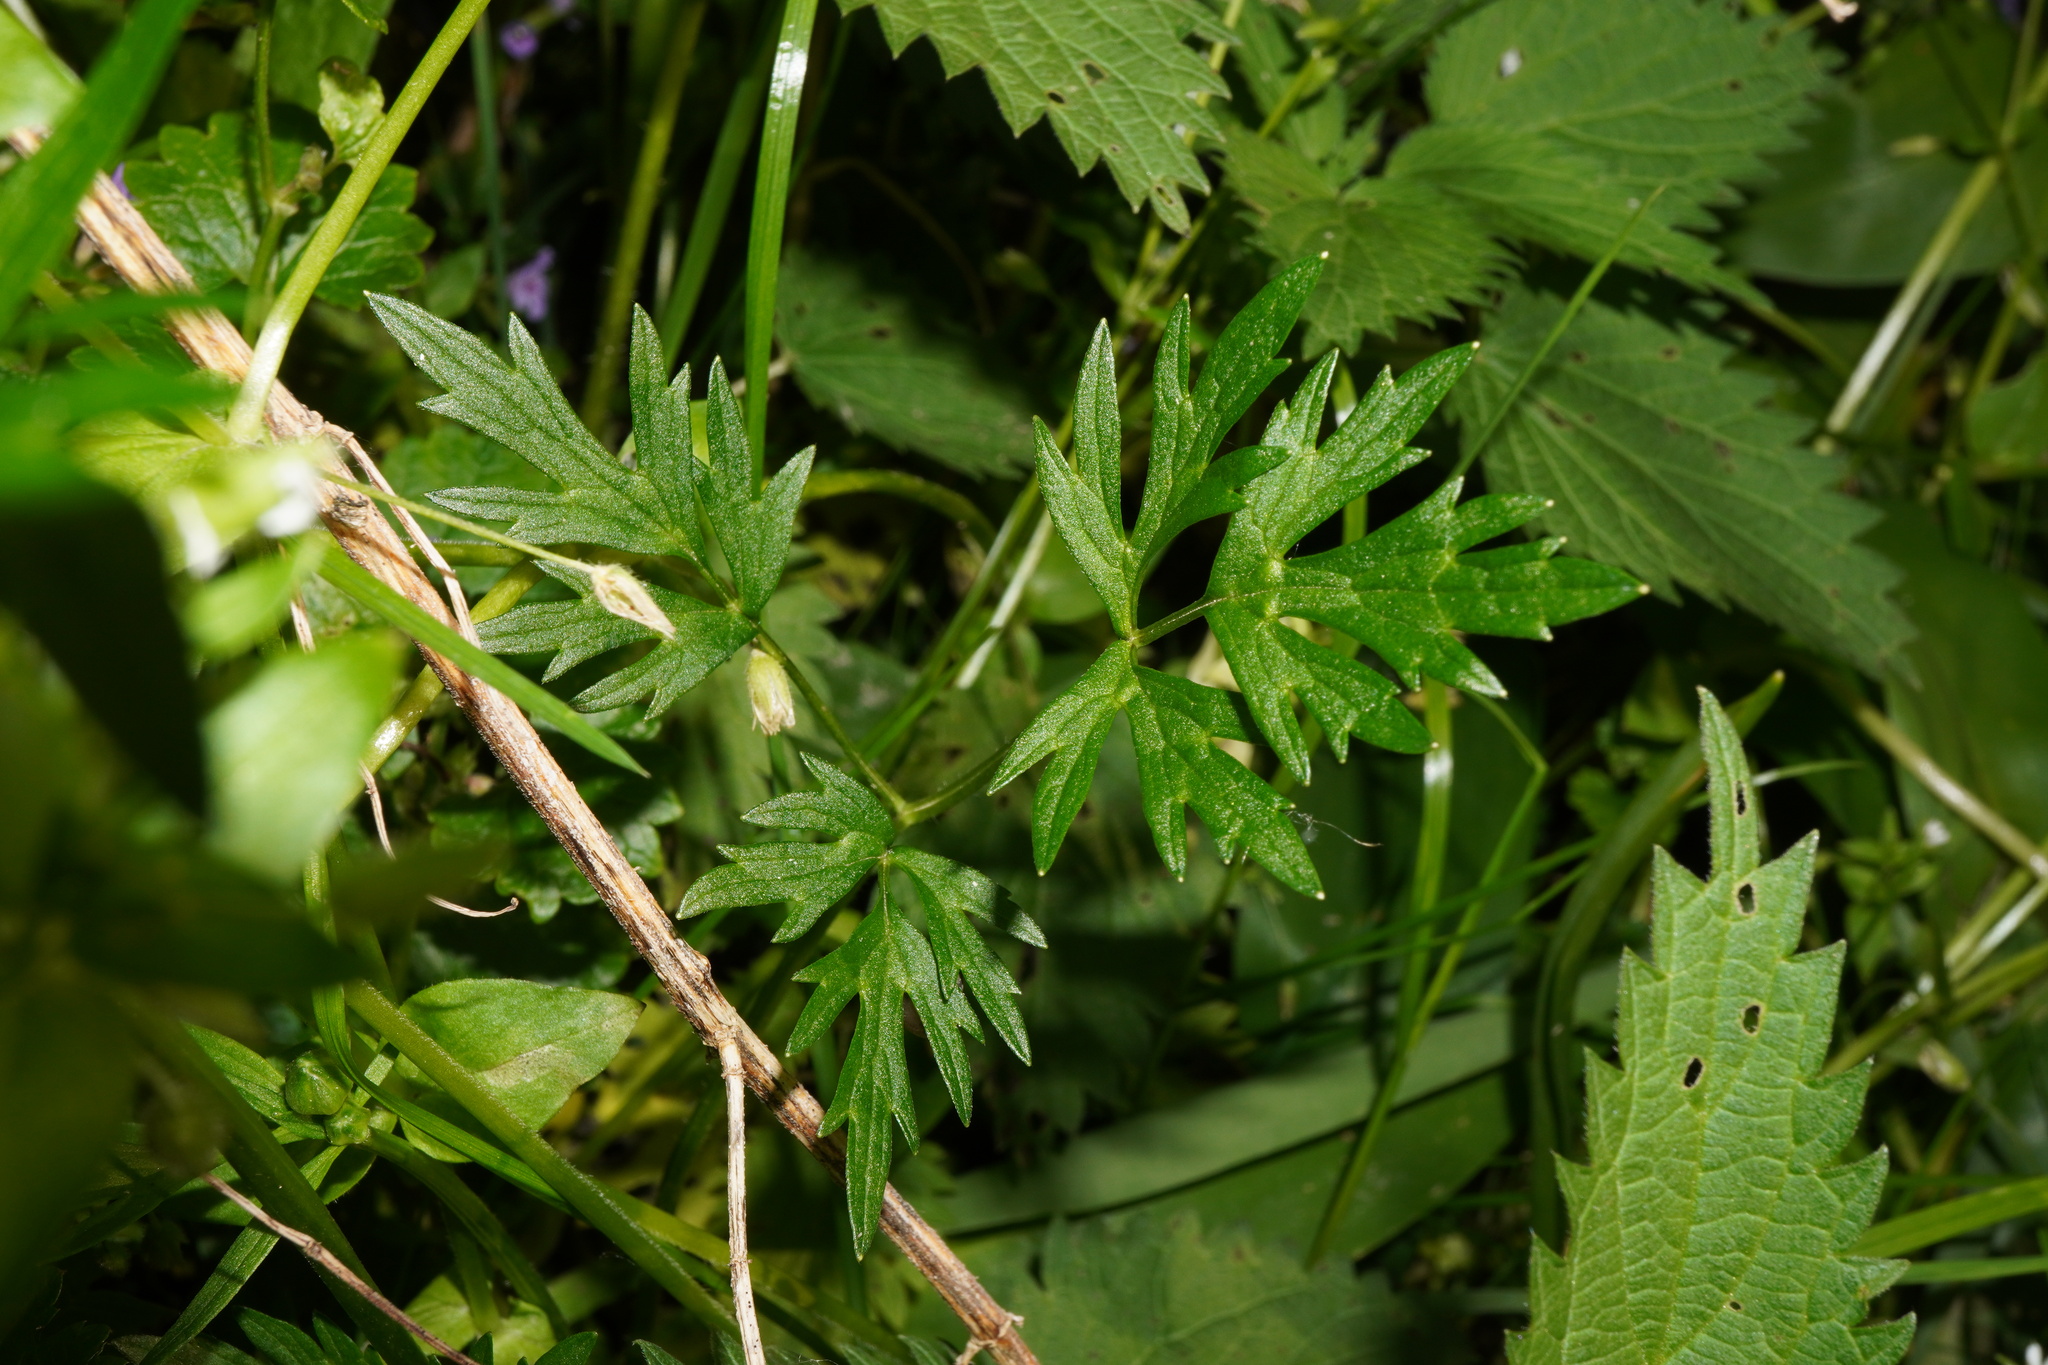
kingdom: Plantae
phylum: Tracheophyta
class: Magnoliopsida
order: Ranunculales
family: Ranunculaceae
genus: Ranunculus
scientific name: Ranunculus repens
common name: Creeping buttercup
